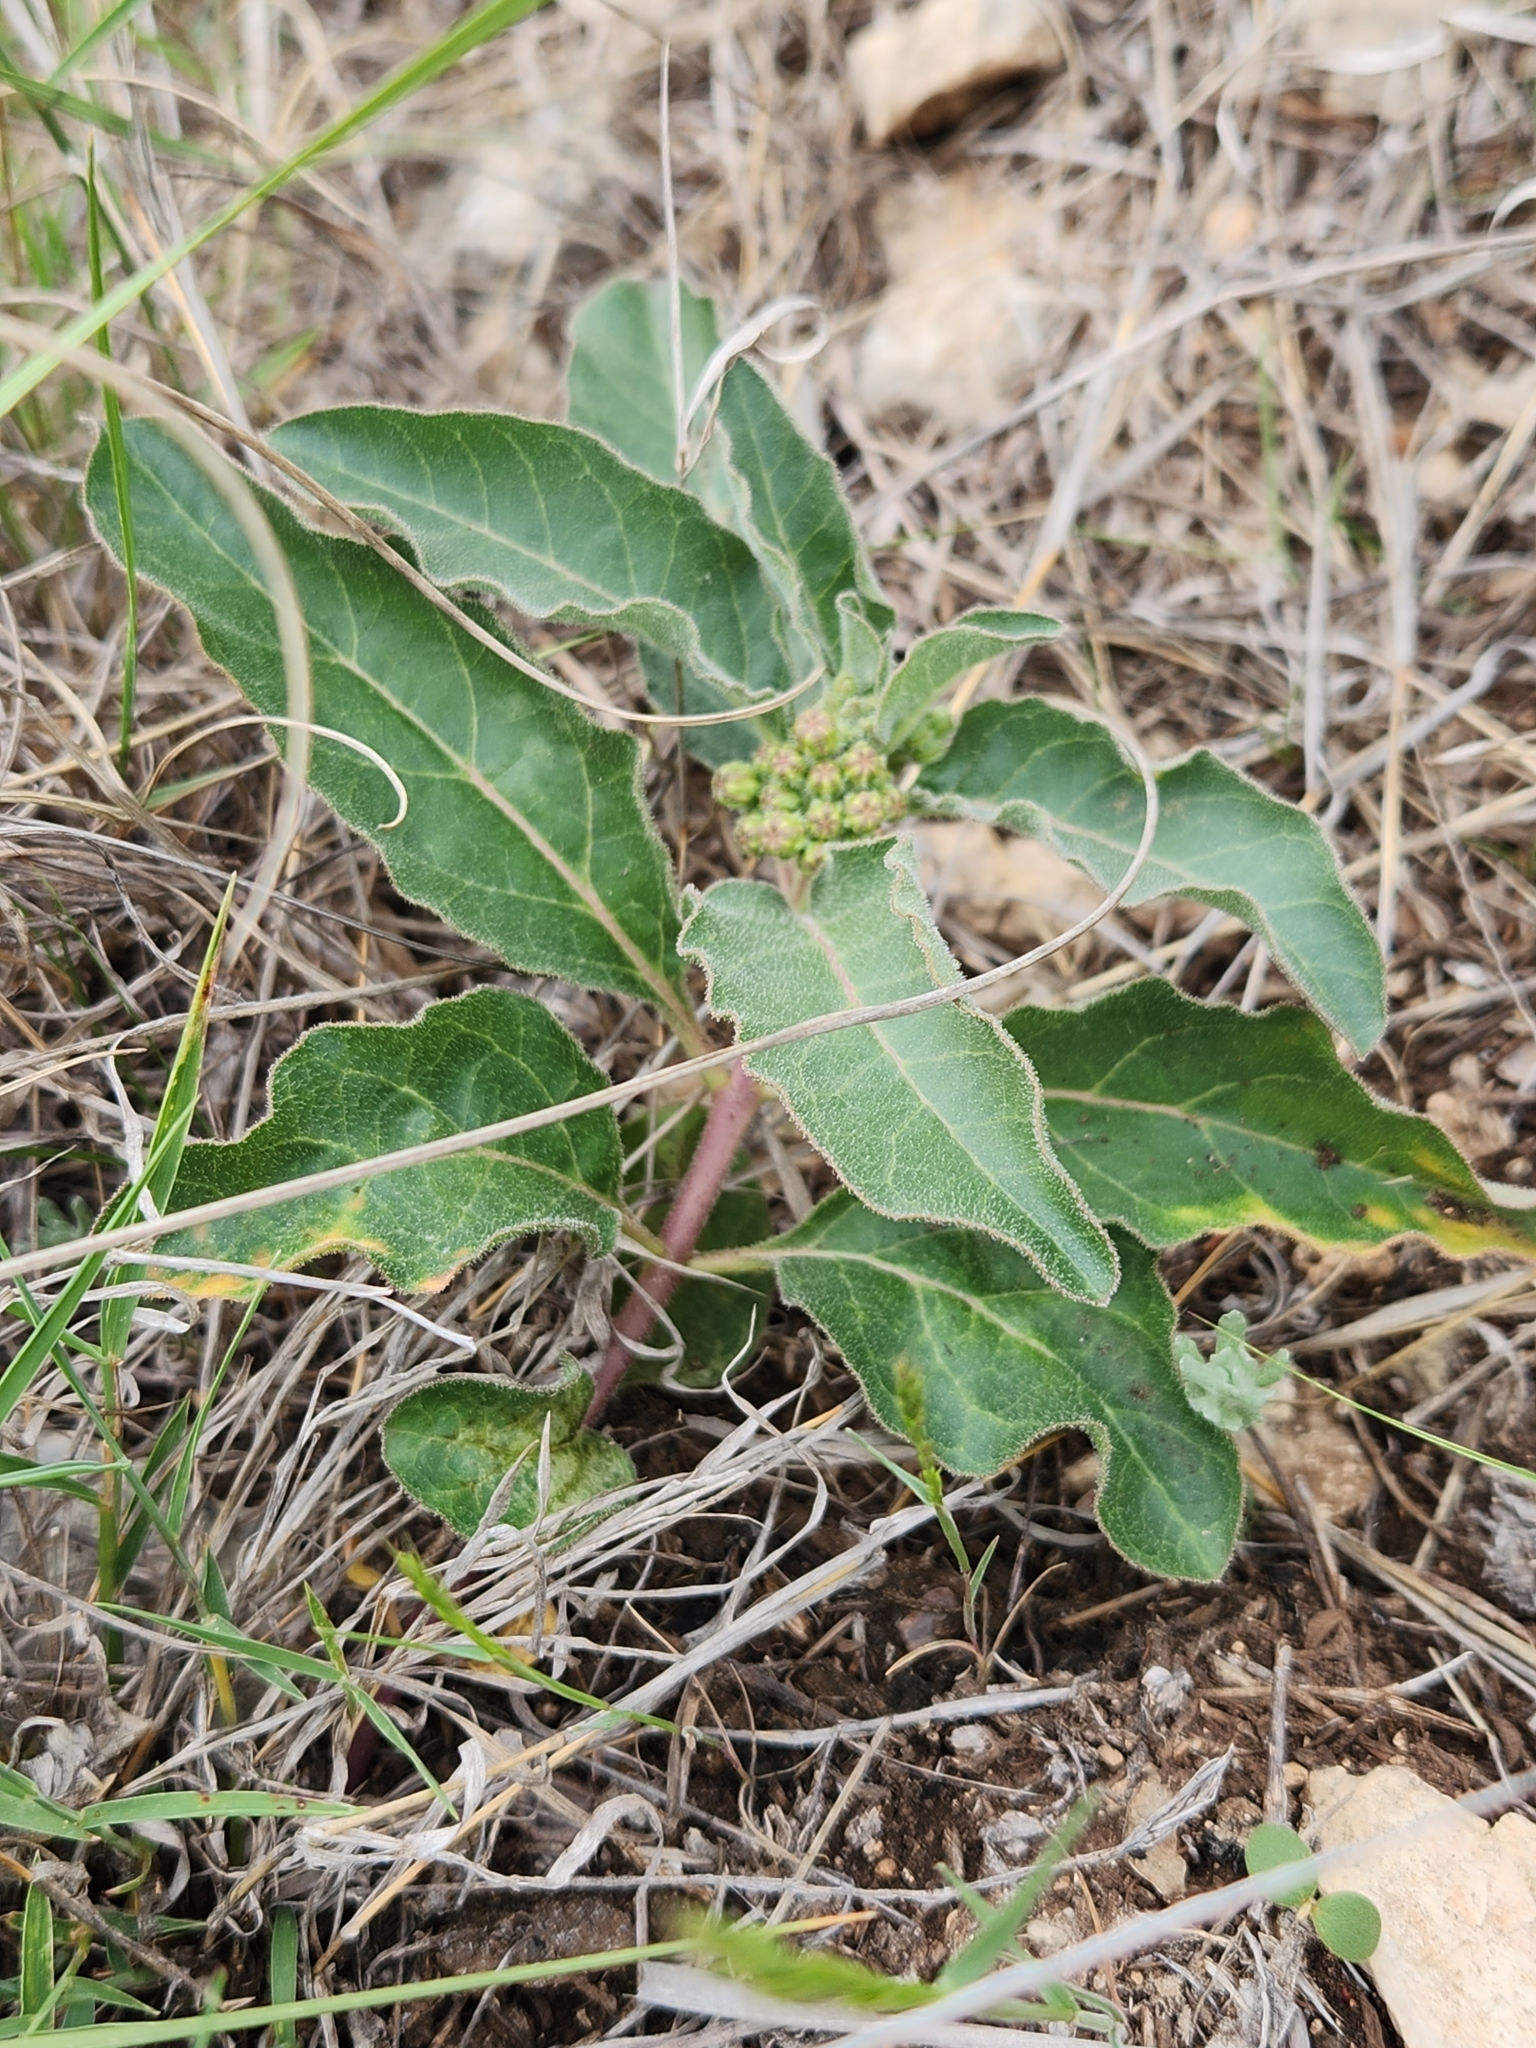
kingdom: Plantae
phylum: Tracheophyta
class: Magnoliopsida
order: Gentianales
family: Apocynaceae
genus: Asclepias
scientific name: Asclepias oenotheroides
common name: Zizotes milkweed
